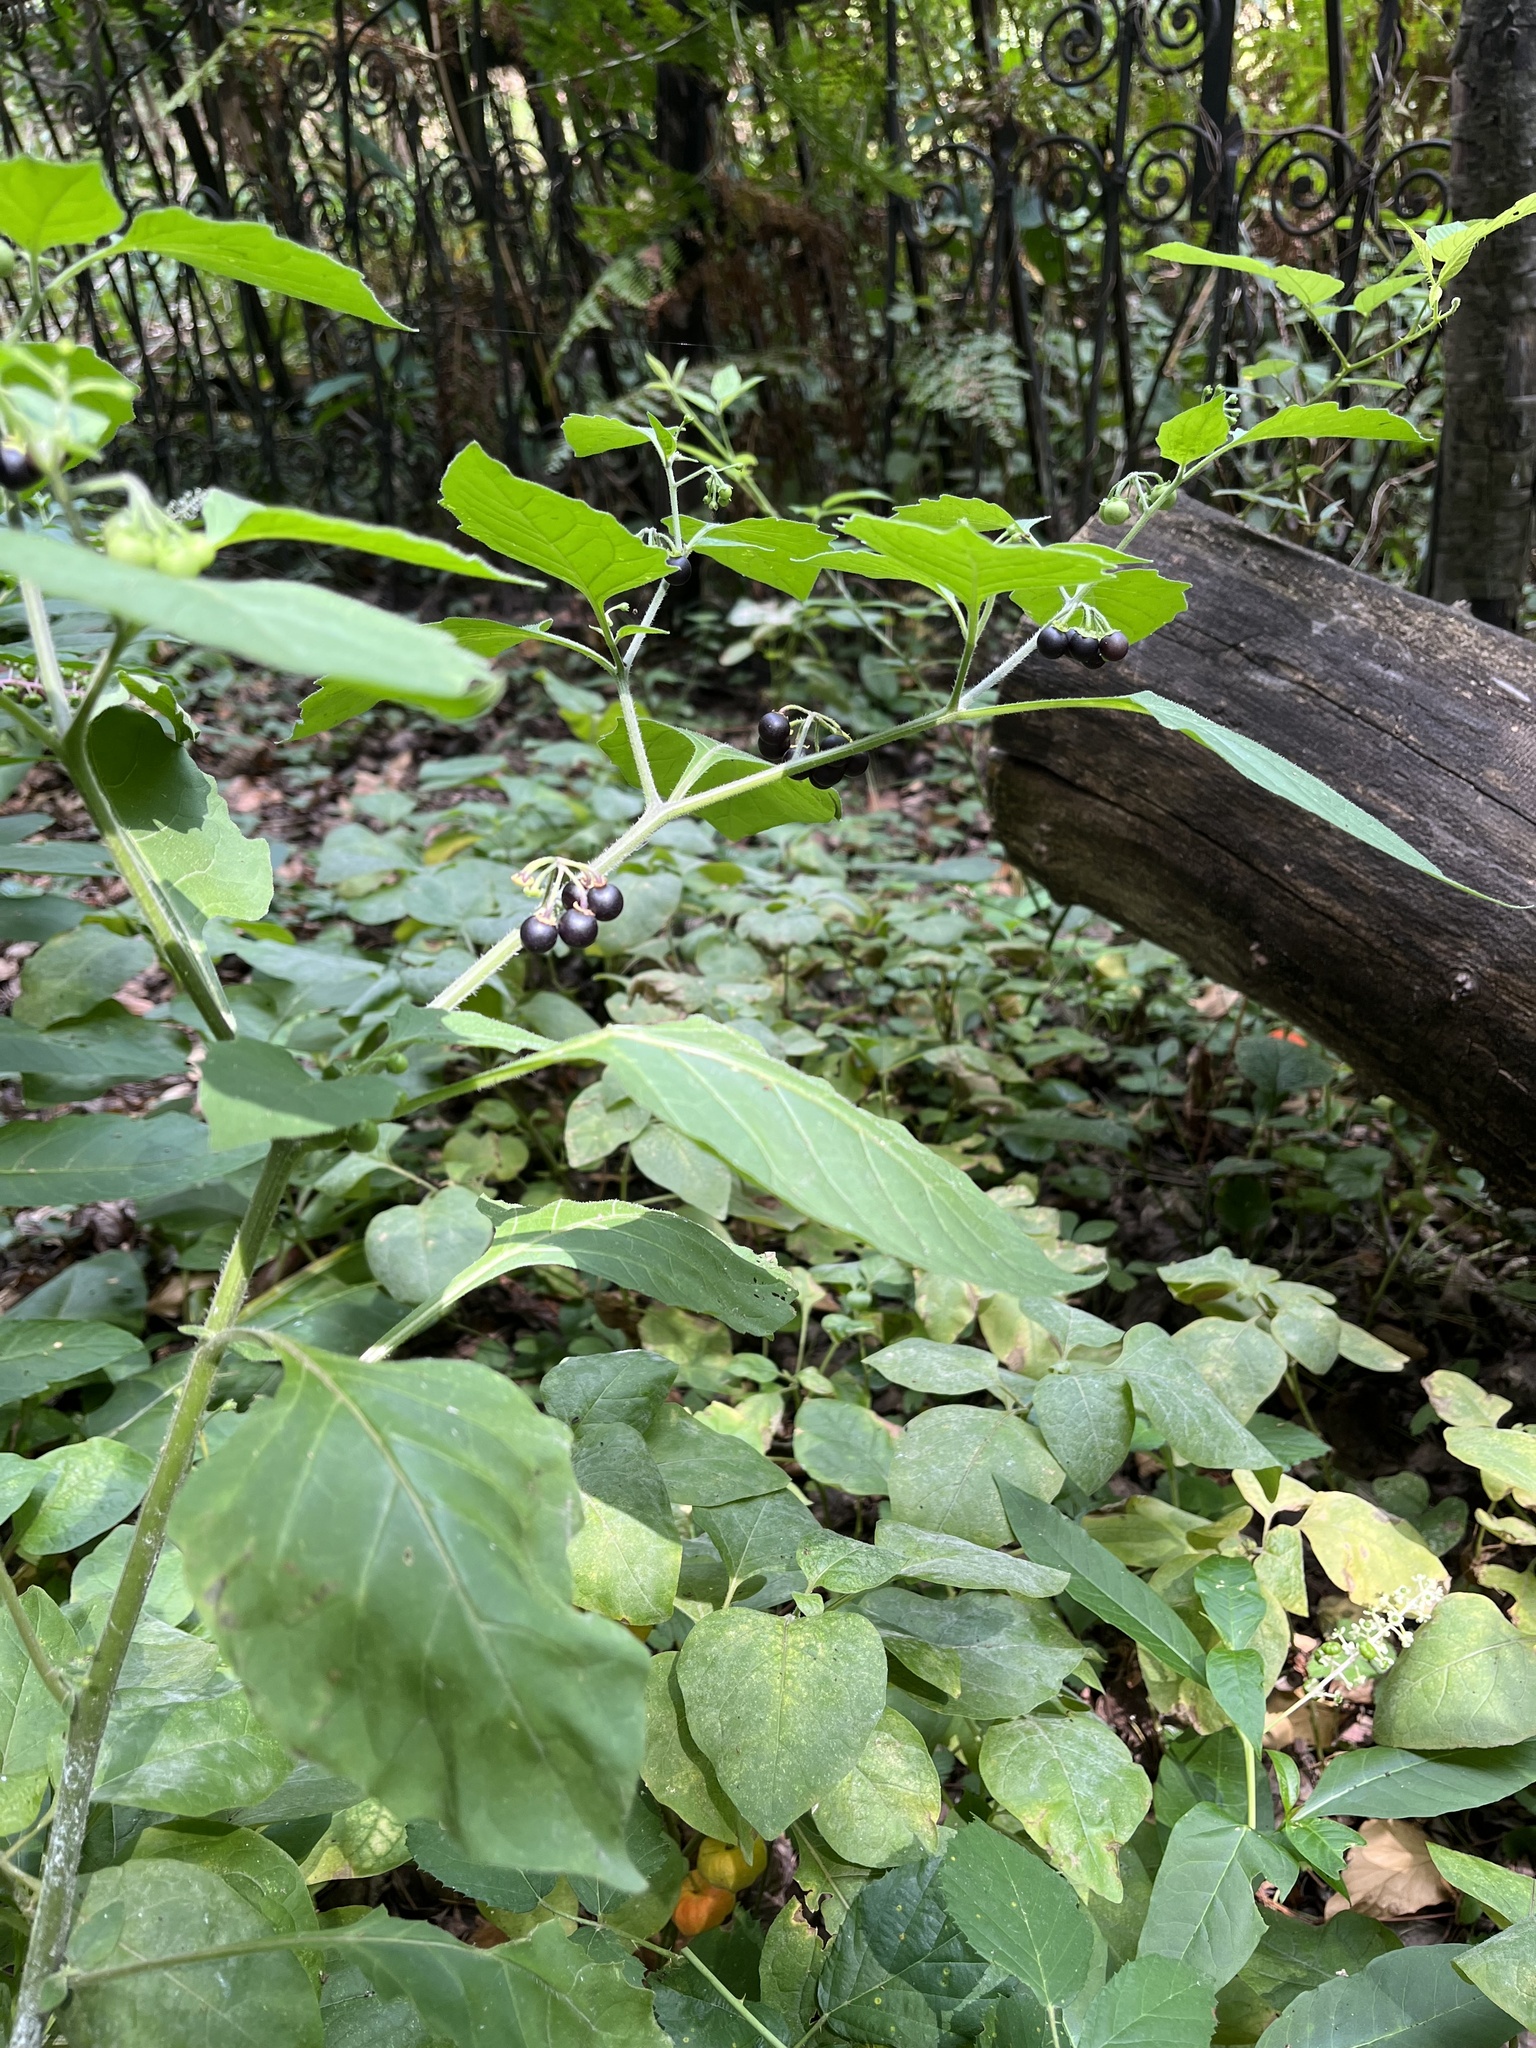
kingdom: Plantae
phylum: Tracheophyta
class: Magnoliopsida
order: Solanales
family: Solanaceae
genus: Solanum
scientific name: Solanum nigrum
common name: Black nightshade
